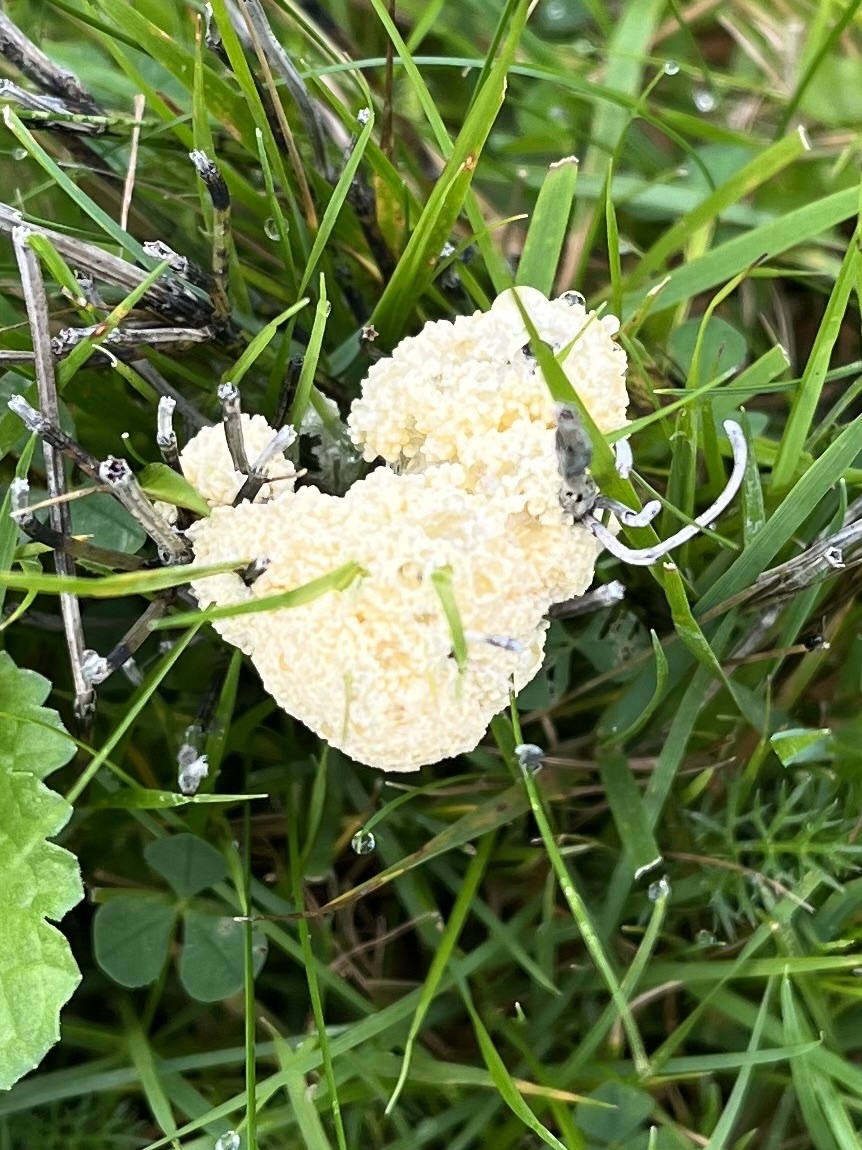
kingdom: Protozoa
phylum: Mycetozoa
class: Myxomycetes
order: Physarales
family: Physaraceae
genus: Didymium
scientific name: Didymium
